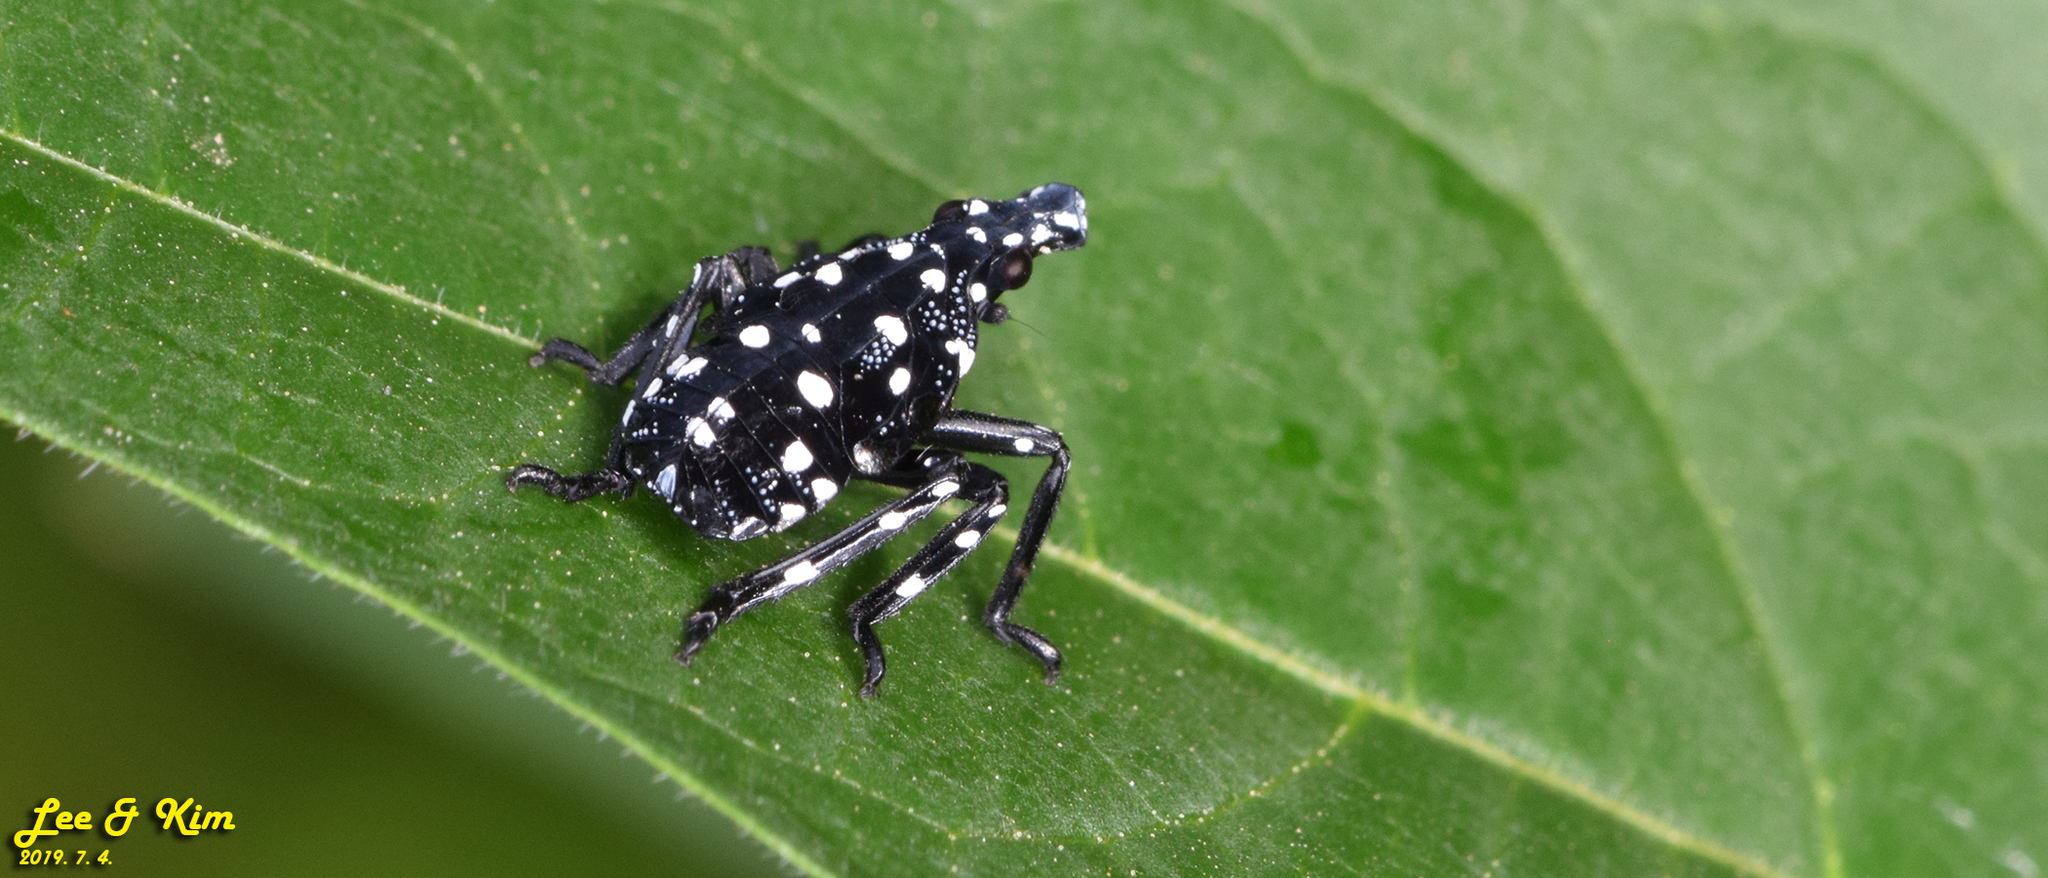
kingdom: Animalia
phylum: Arthropoda
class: Insecta
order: Hemiptera
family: Fulgoridae
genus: Lycorma
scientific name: Lycorma delicatula
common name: Spotted lanternfly
